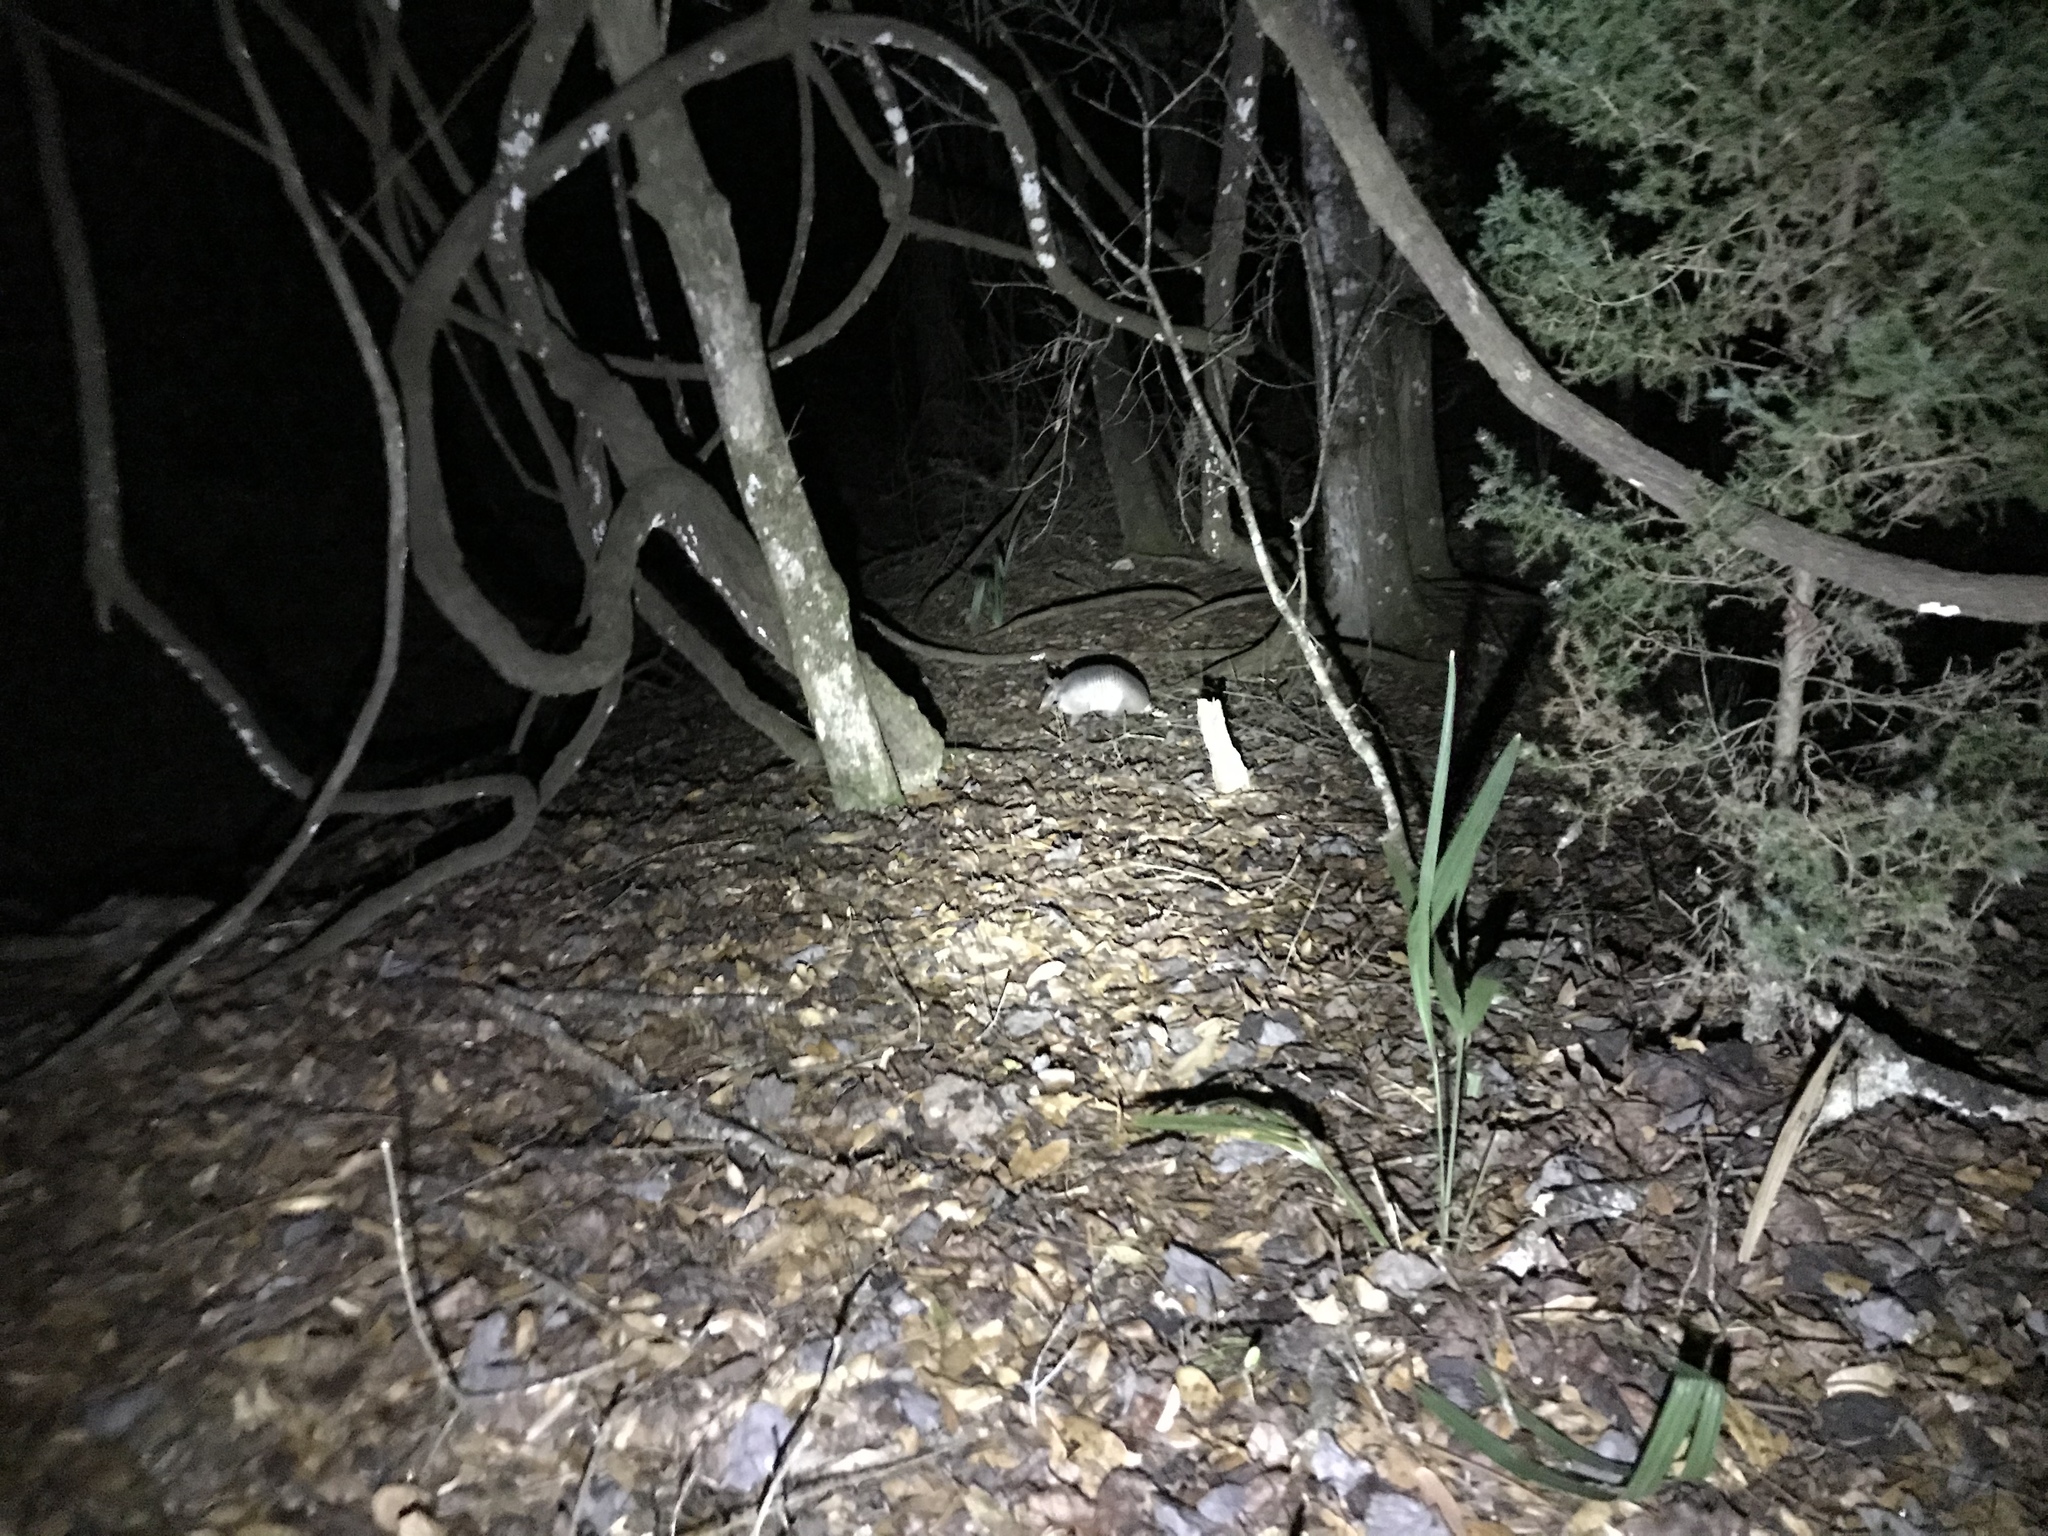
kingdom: Animalia
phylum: Chordata
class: Mammalia
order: Cingulata
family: Dasypodidae
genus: Dasypus
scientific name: Dasypus novemcinctus
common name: Nine-banded armadillo
